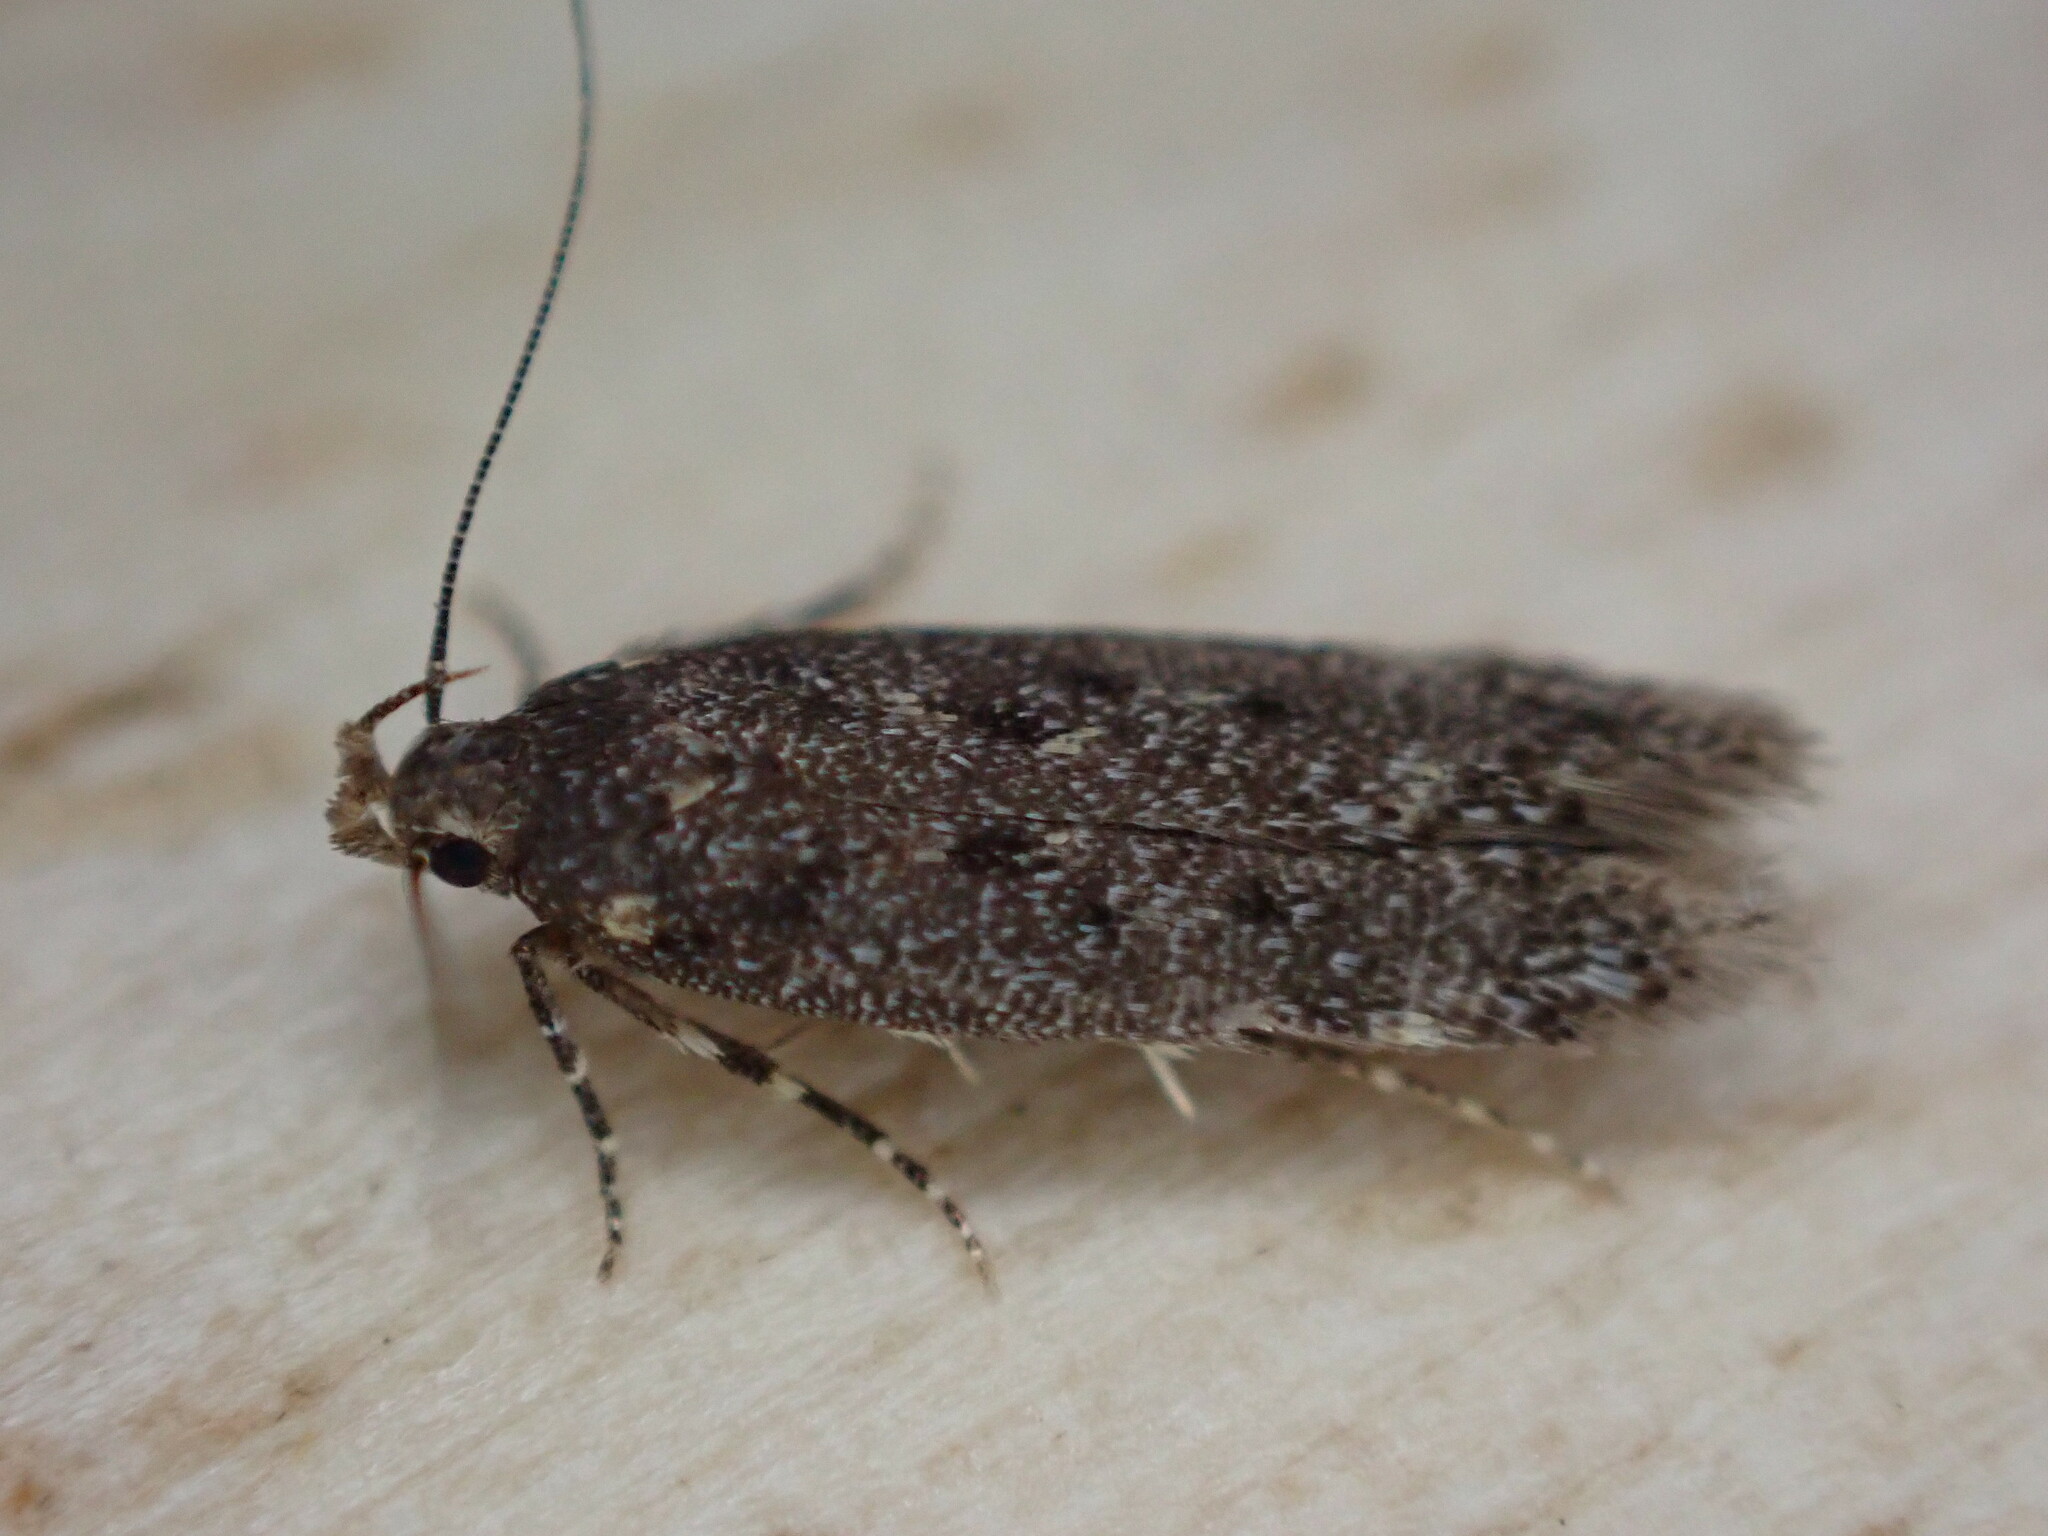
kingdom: Animalia
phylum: Arthropoda
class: Insecta
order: Lepidoptera
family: Gelechiidae
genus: Bryotropha
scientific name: Bryotropha affinis
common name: Dark groundling
